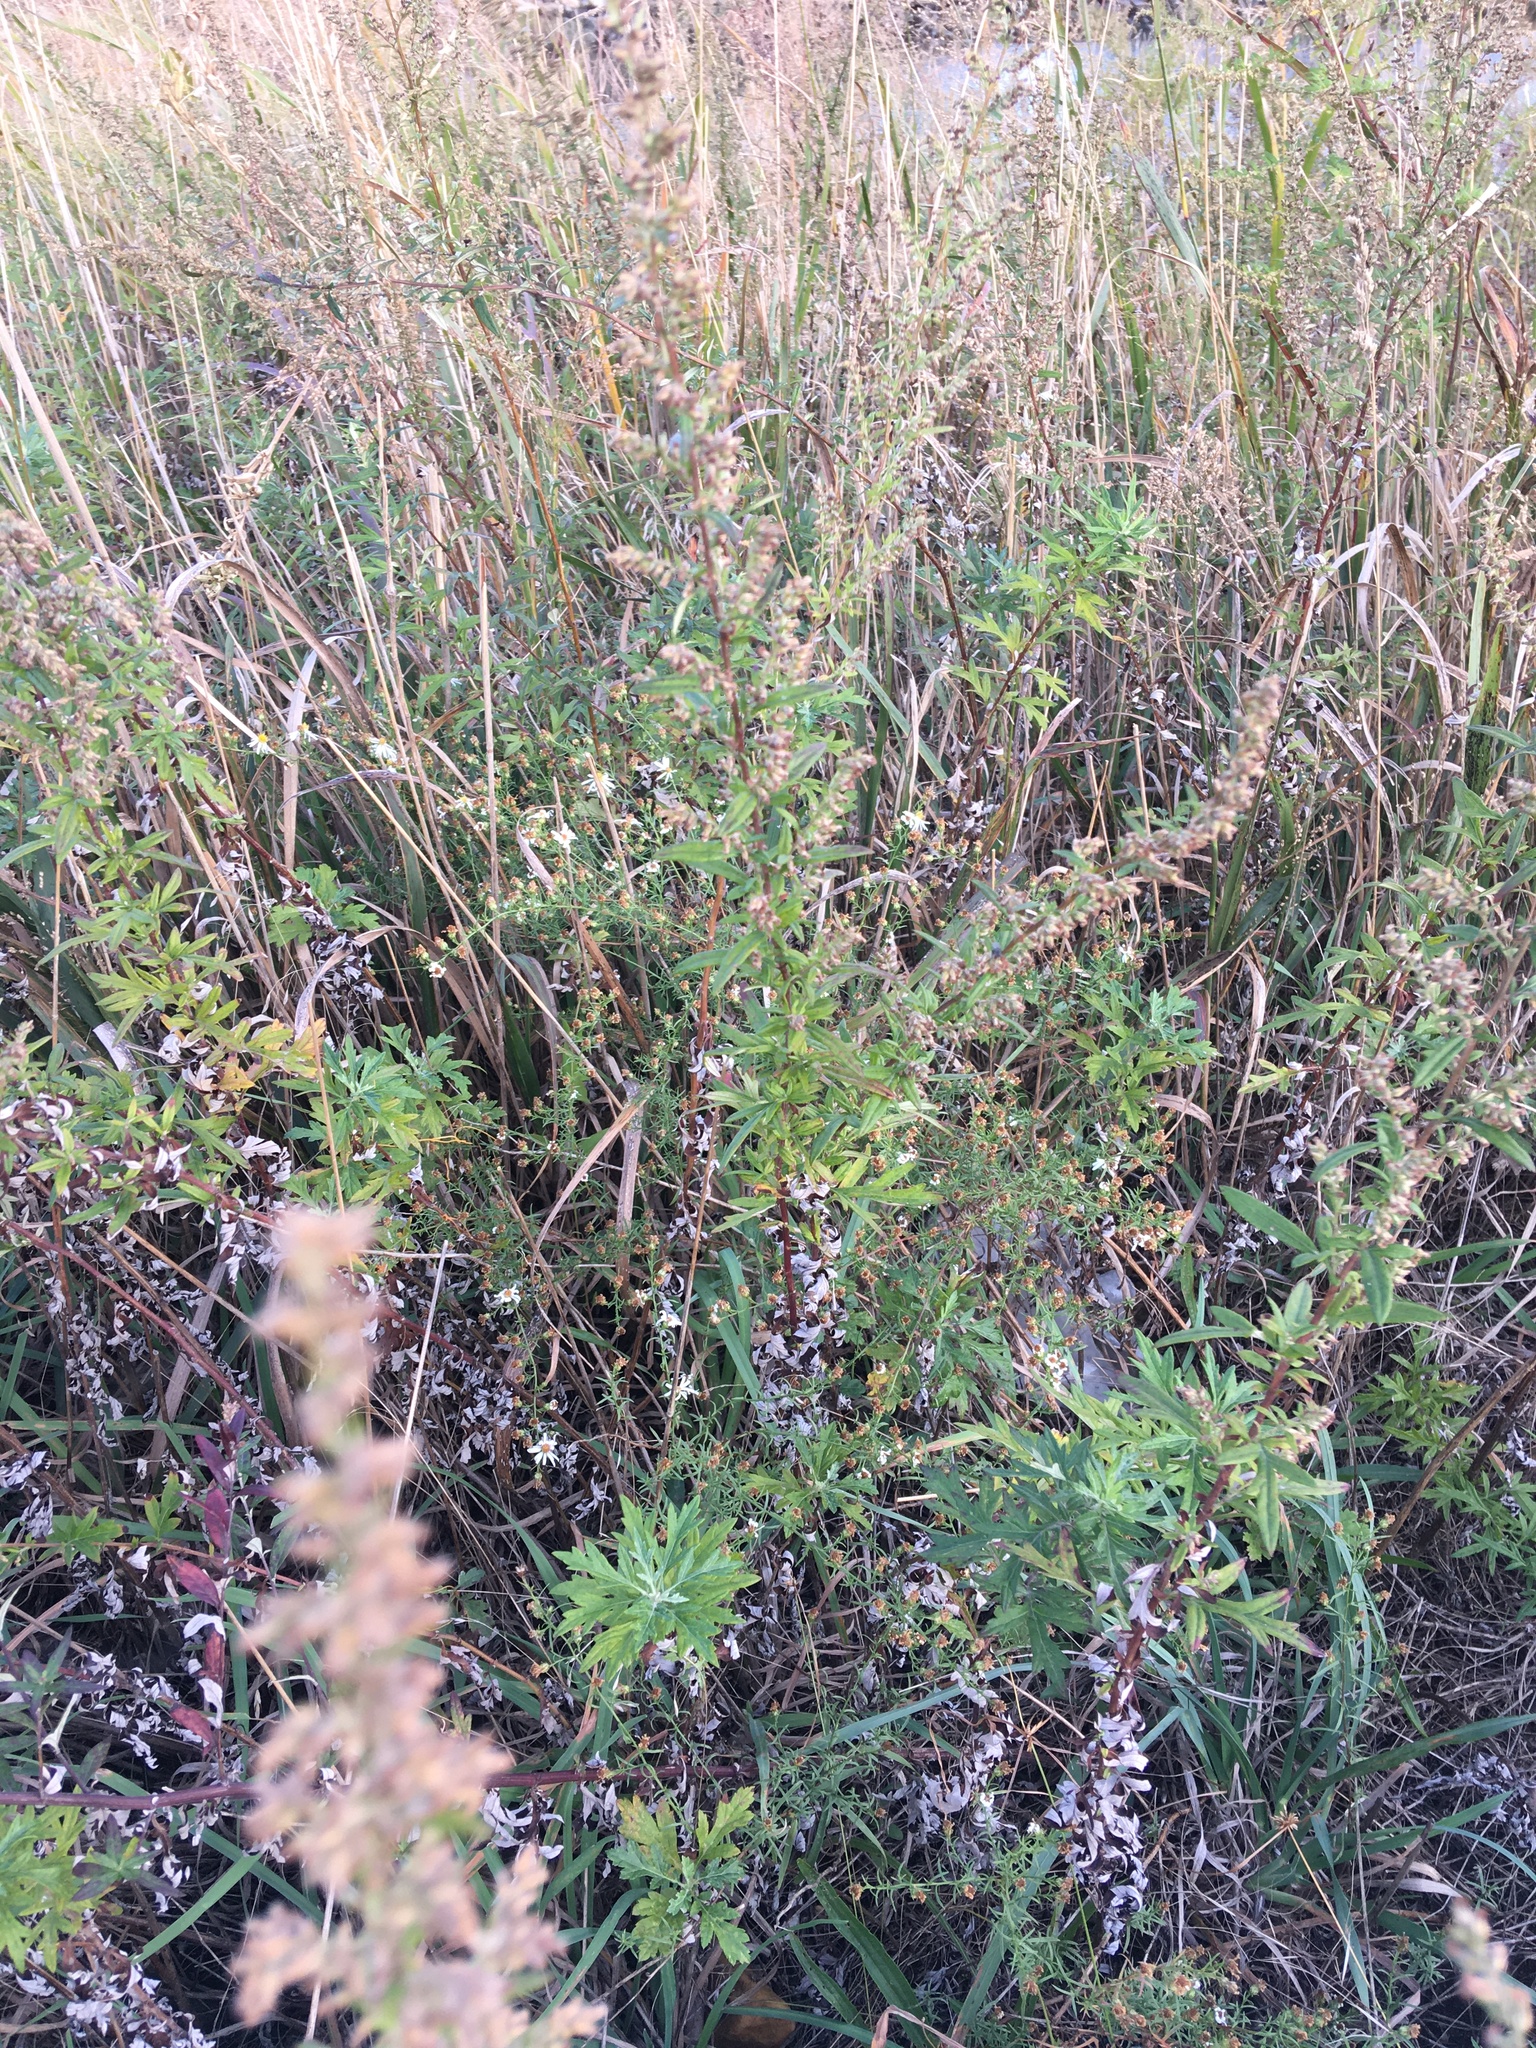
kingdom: Plantae
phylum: Tracheophyta
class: Magnoliopsida
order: Asterales
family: Asteraceae
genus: Artemisia
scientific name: Artemisia vulgaris
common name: Mugwort
